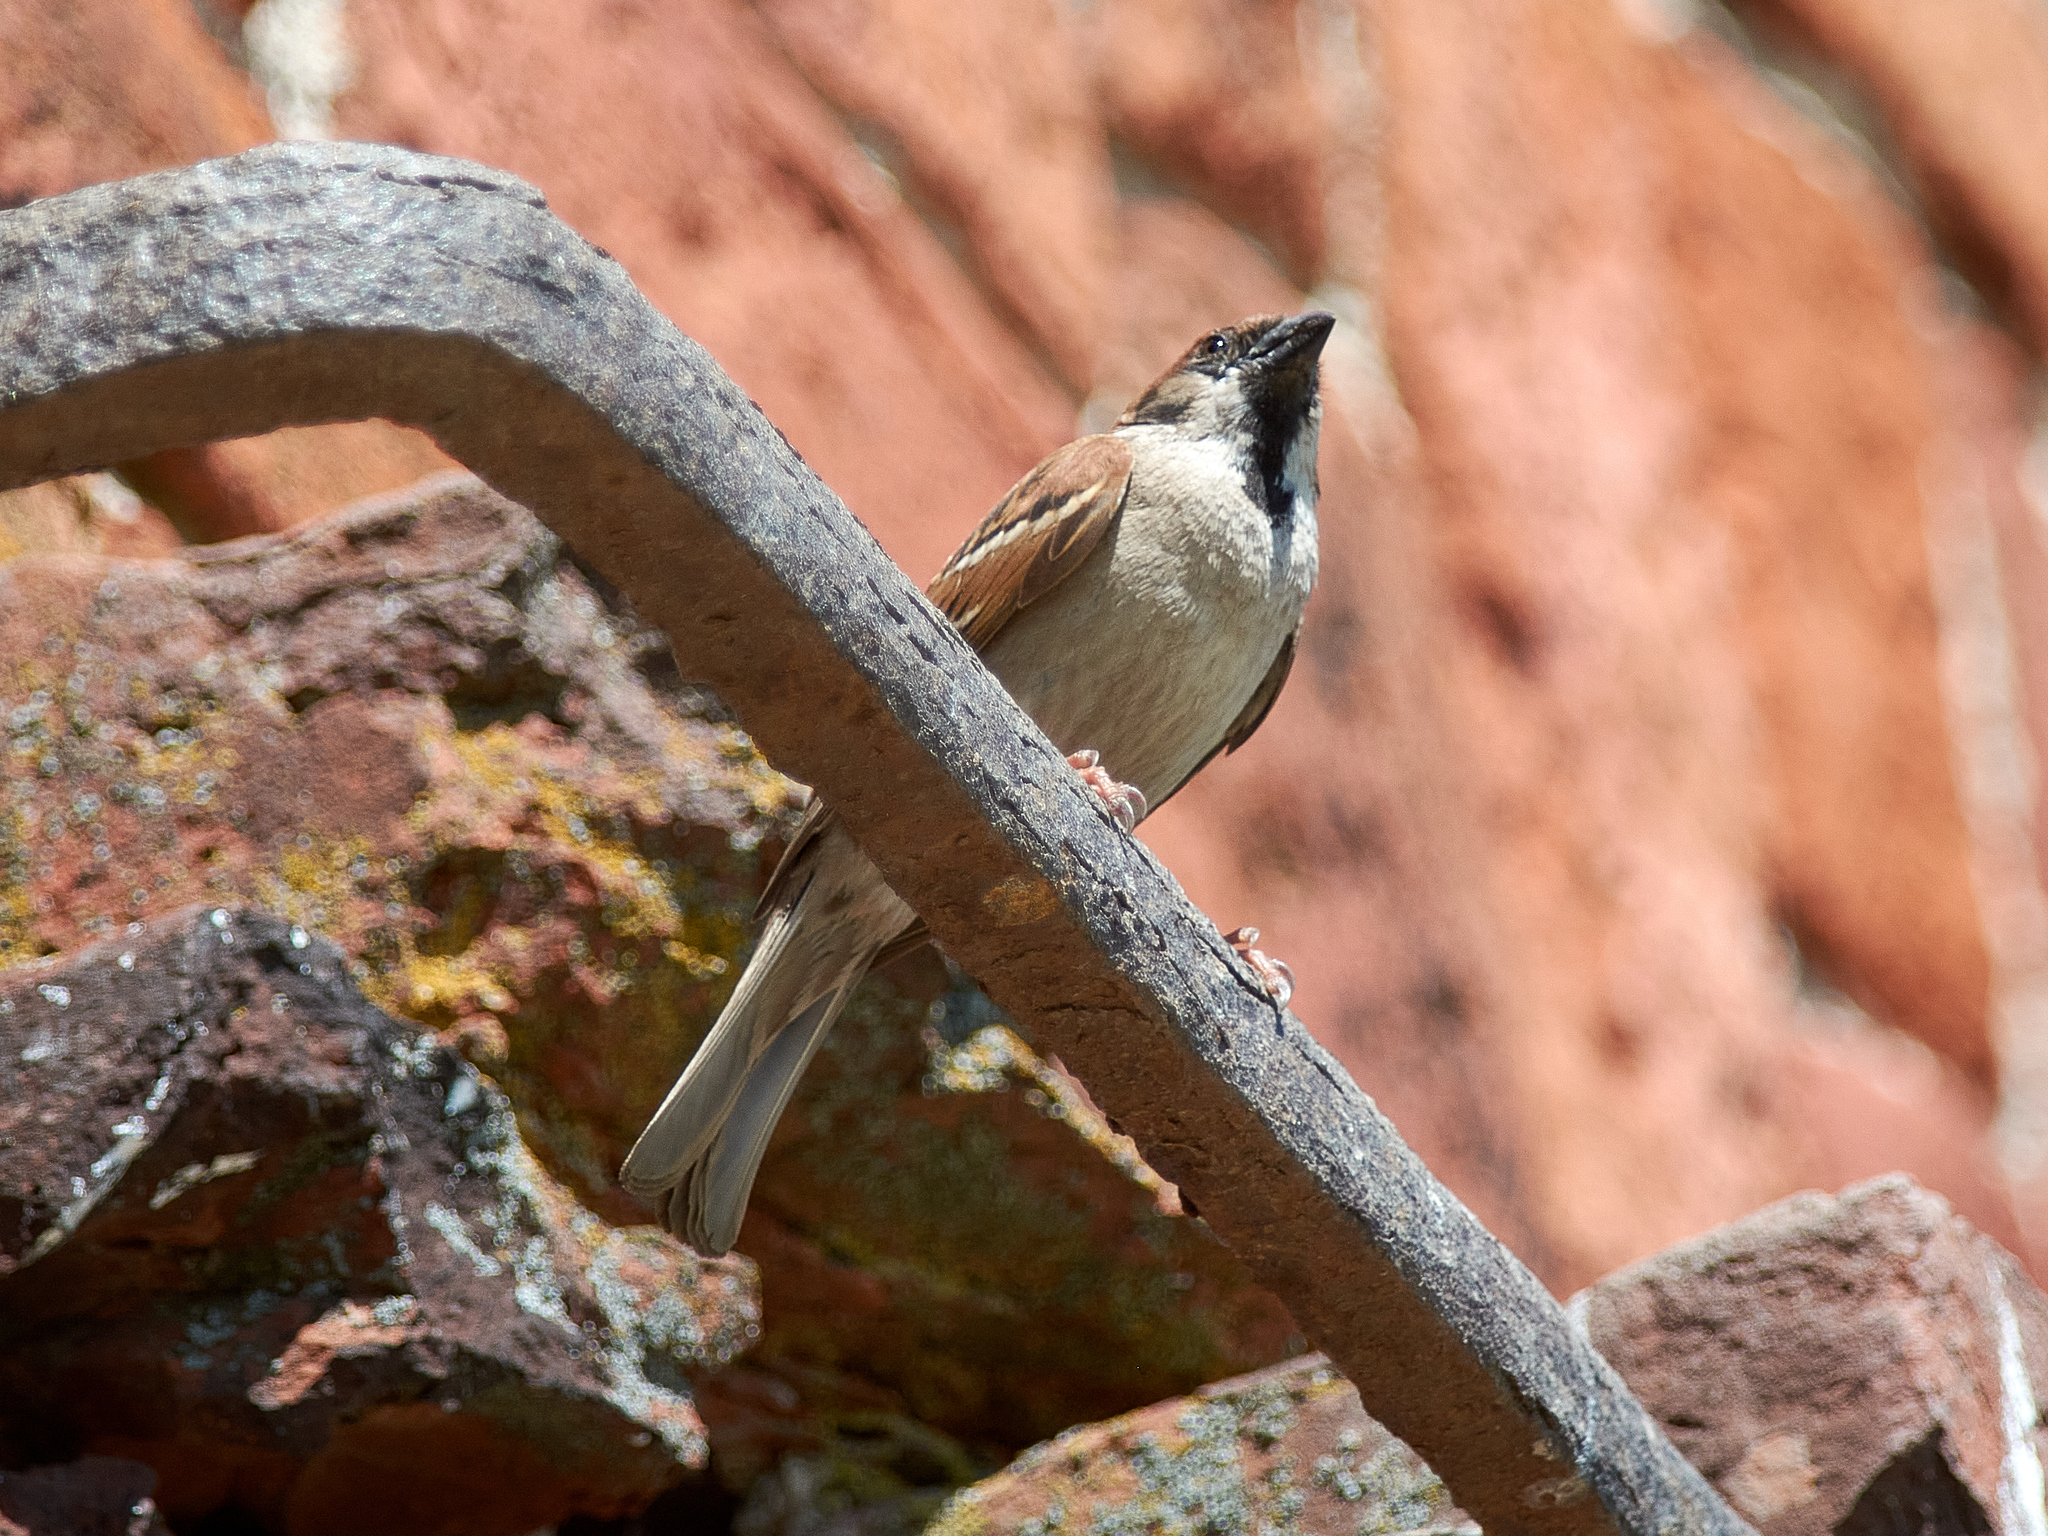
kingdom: Animalia
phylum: Chordata
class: Aves
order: Passeriformes
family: Passeridae
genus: Passer
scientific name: Passer montanus
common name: Eurasian tree sparrow
